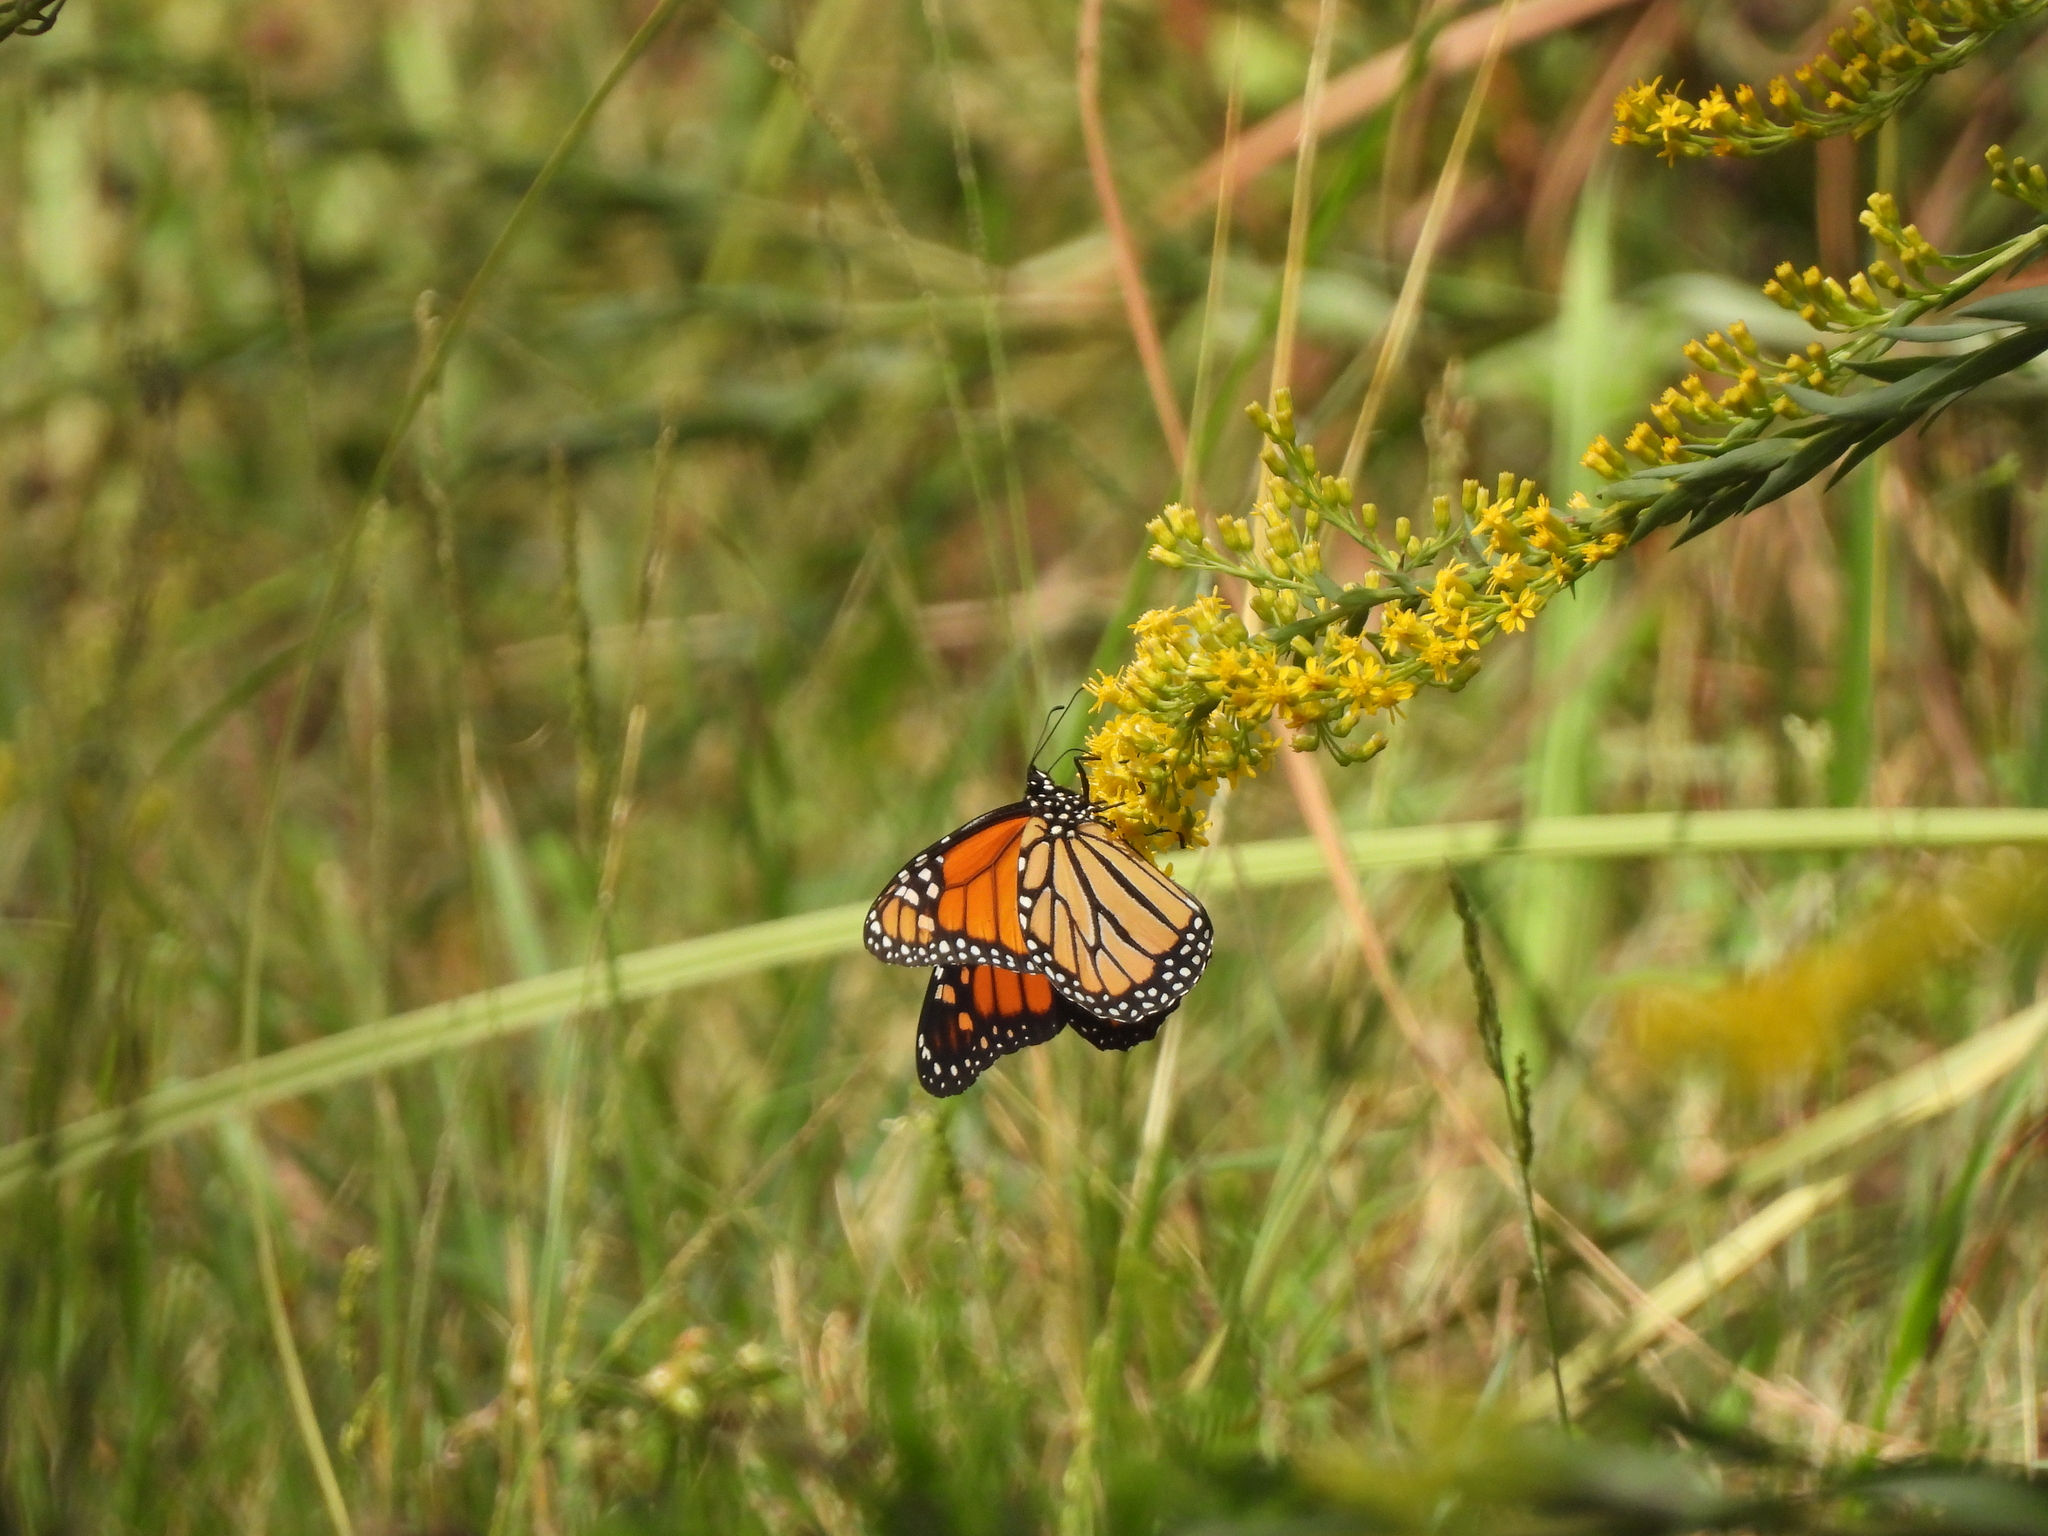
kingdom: Animalia
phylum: Arthropoda
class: Insecta
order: Lepidoptera
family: Nymphalidae
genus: Danaus
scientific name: Danaus plexippus
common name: Monarch
